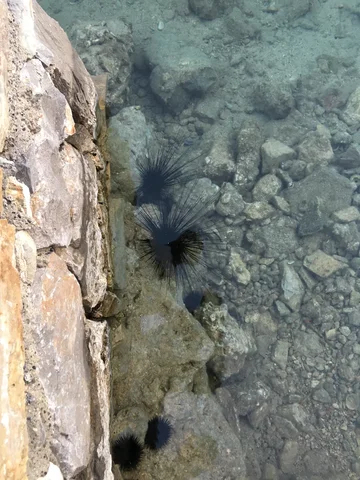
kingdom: Animalia
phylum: Echinodermata
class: Echinoidea
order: Diadematoida
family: Diadematidae
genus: Diadema
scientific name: Diadema setosum
